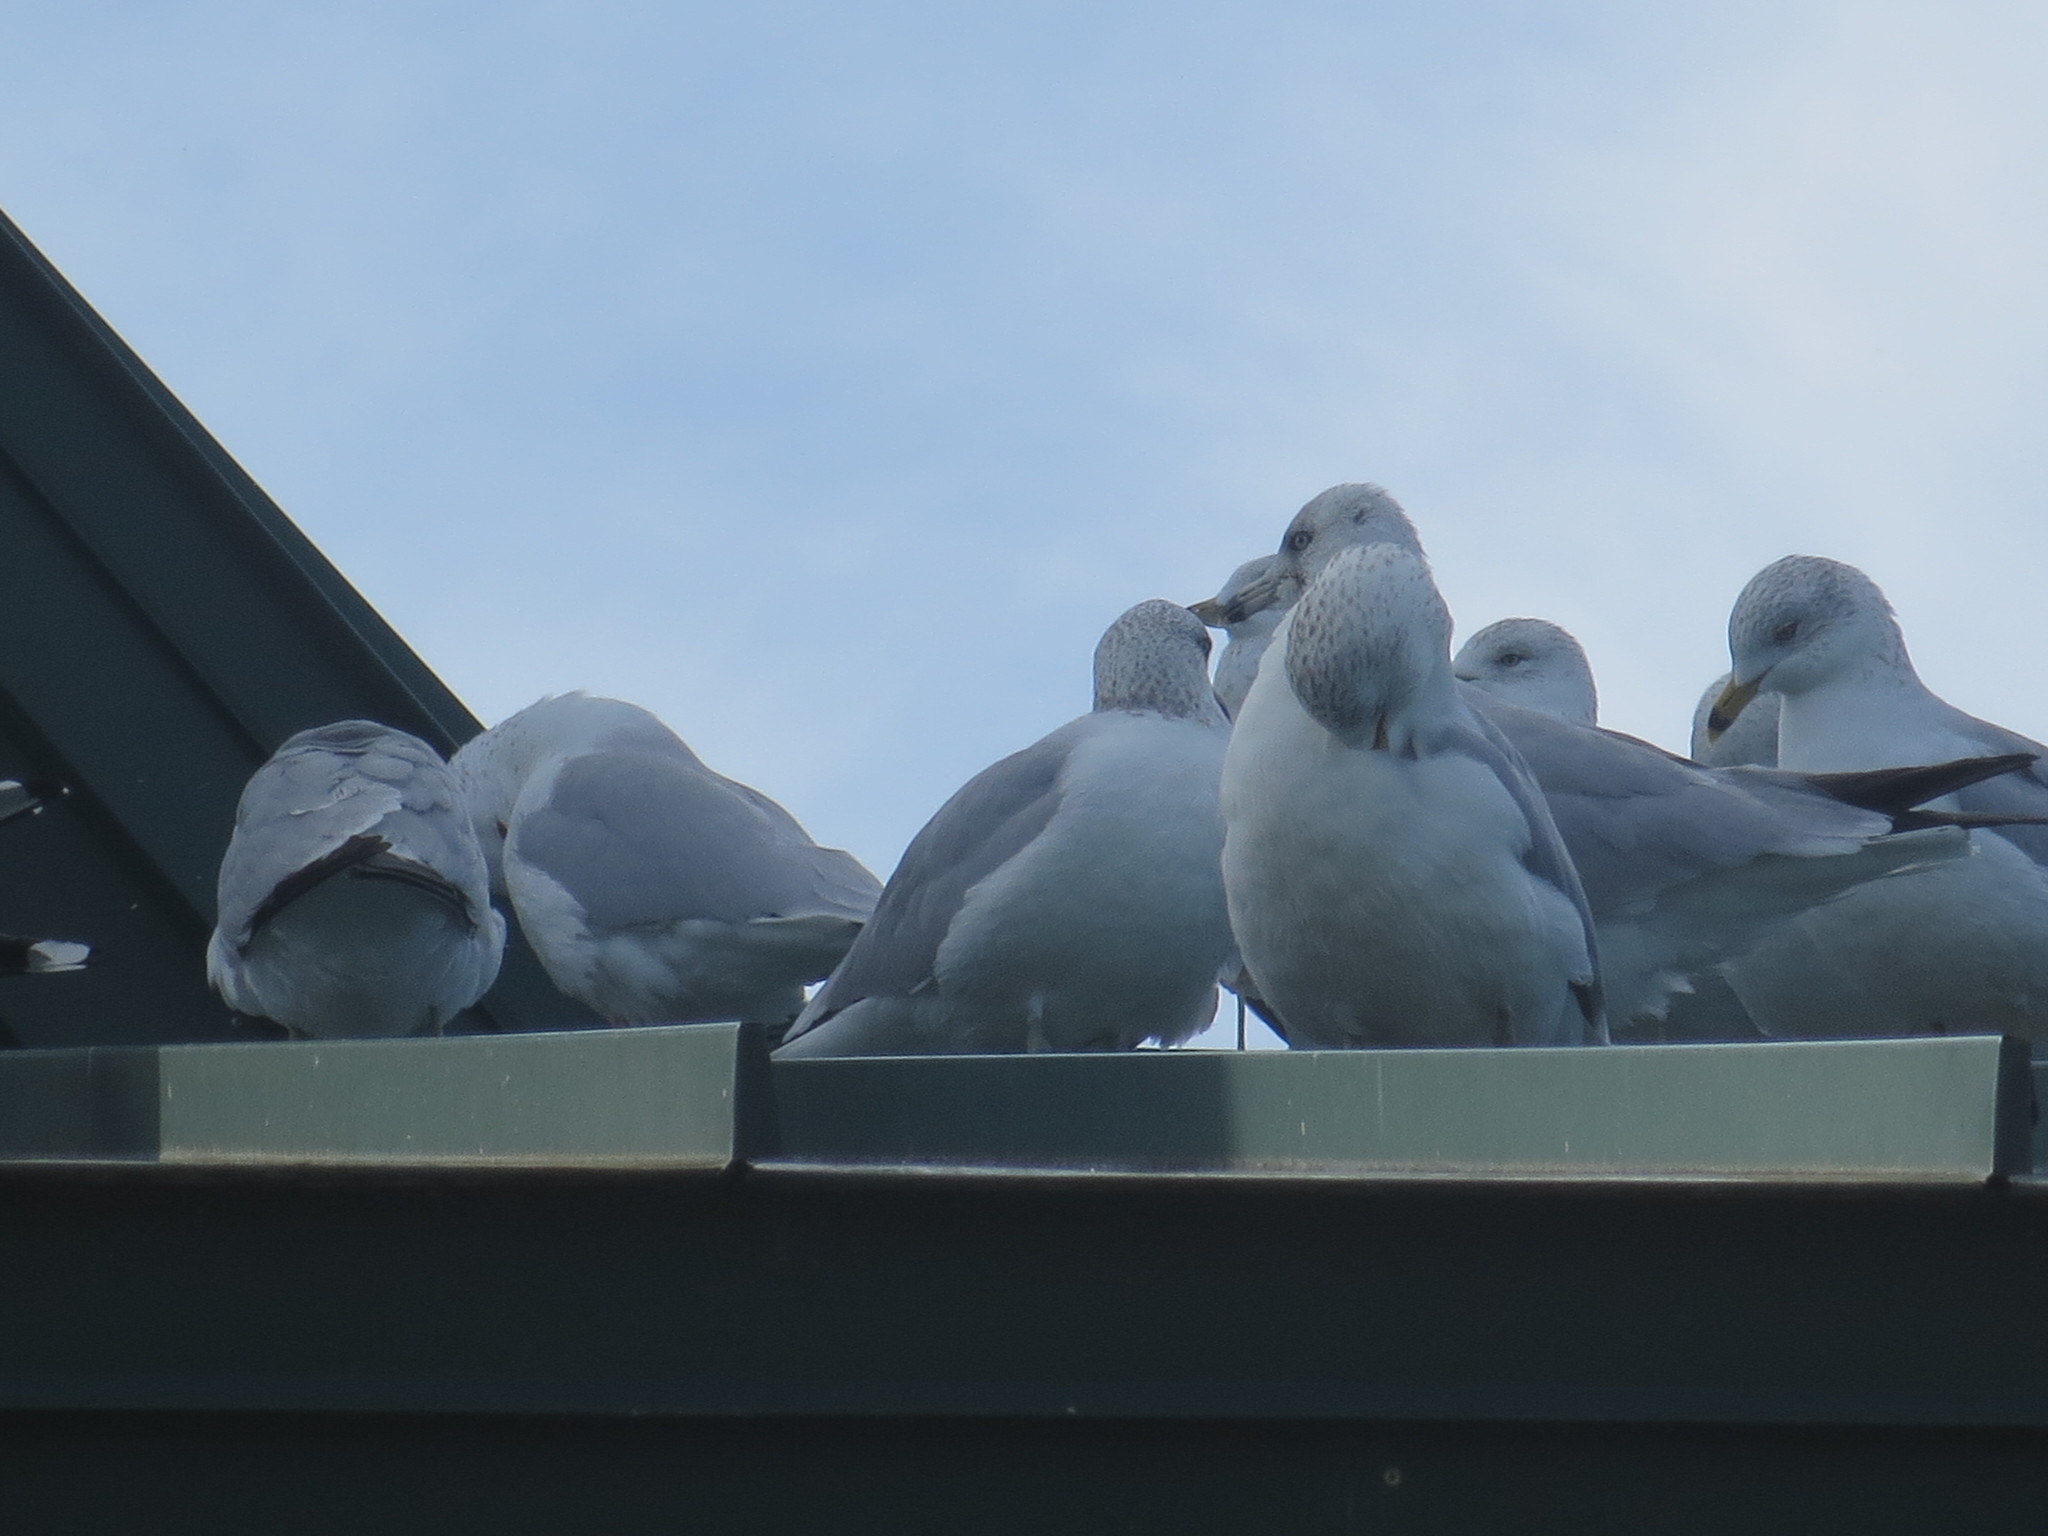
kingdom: Animalia
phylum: Chordata
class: Aves
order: Charadriiformes
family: Laridae
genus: Larus
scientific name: Larus delawarensis
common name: Ring-billed gull
